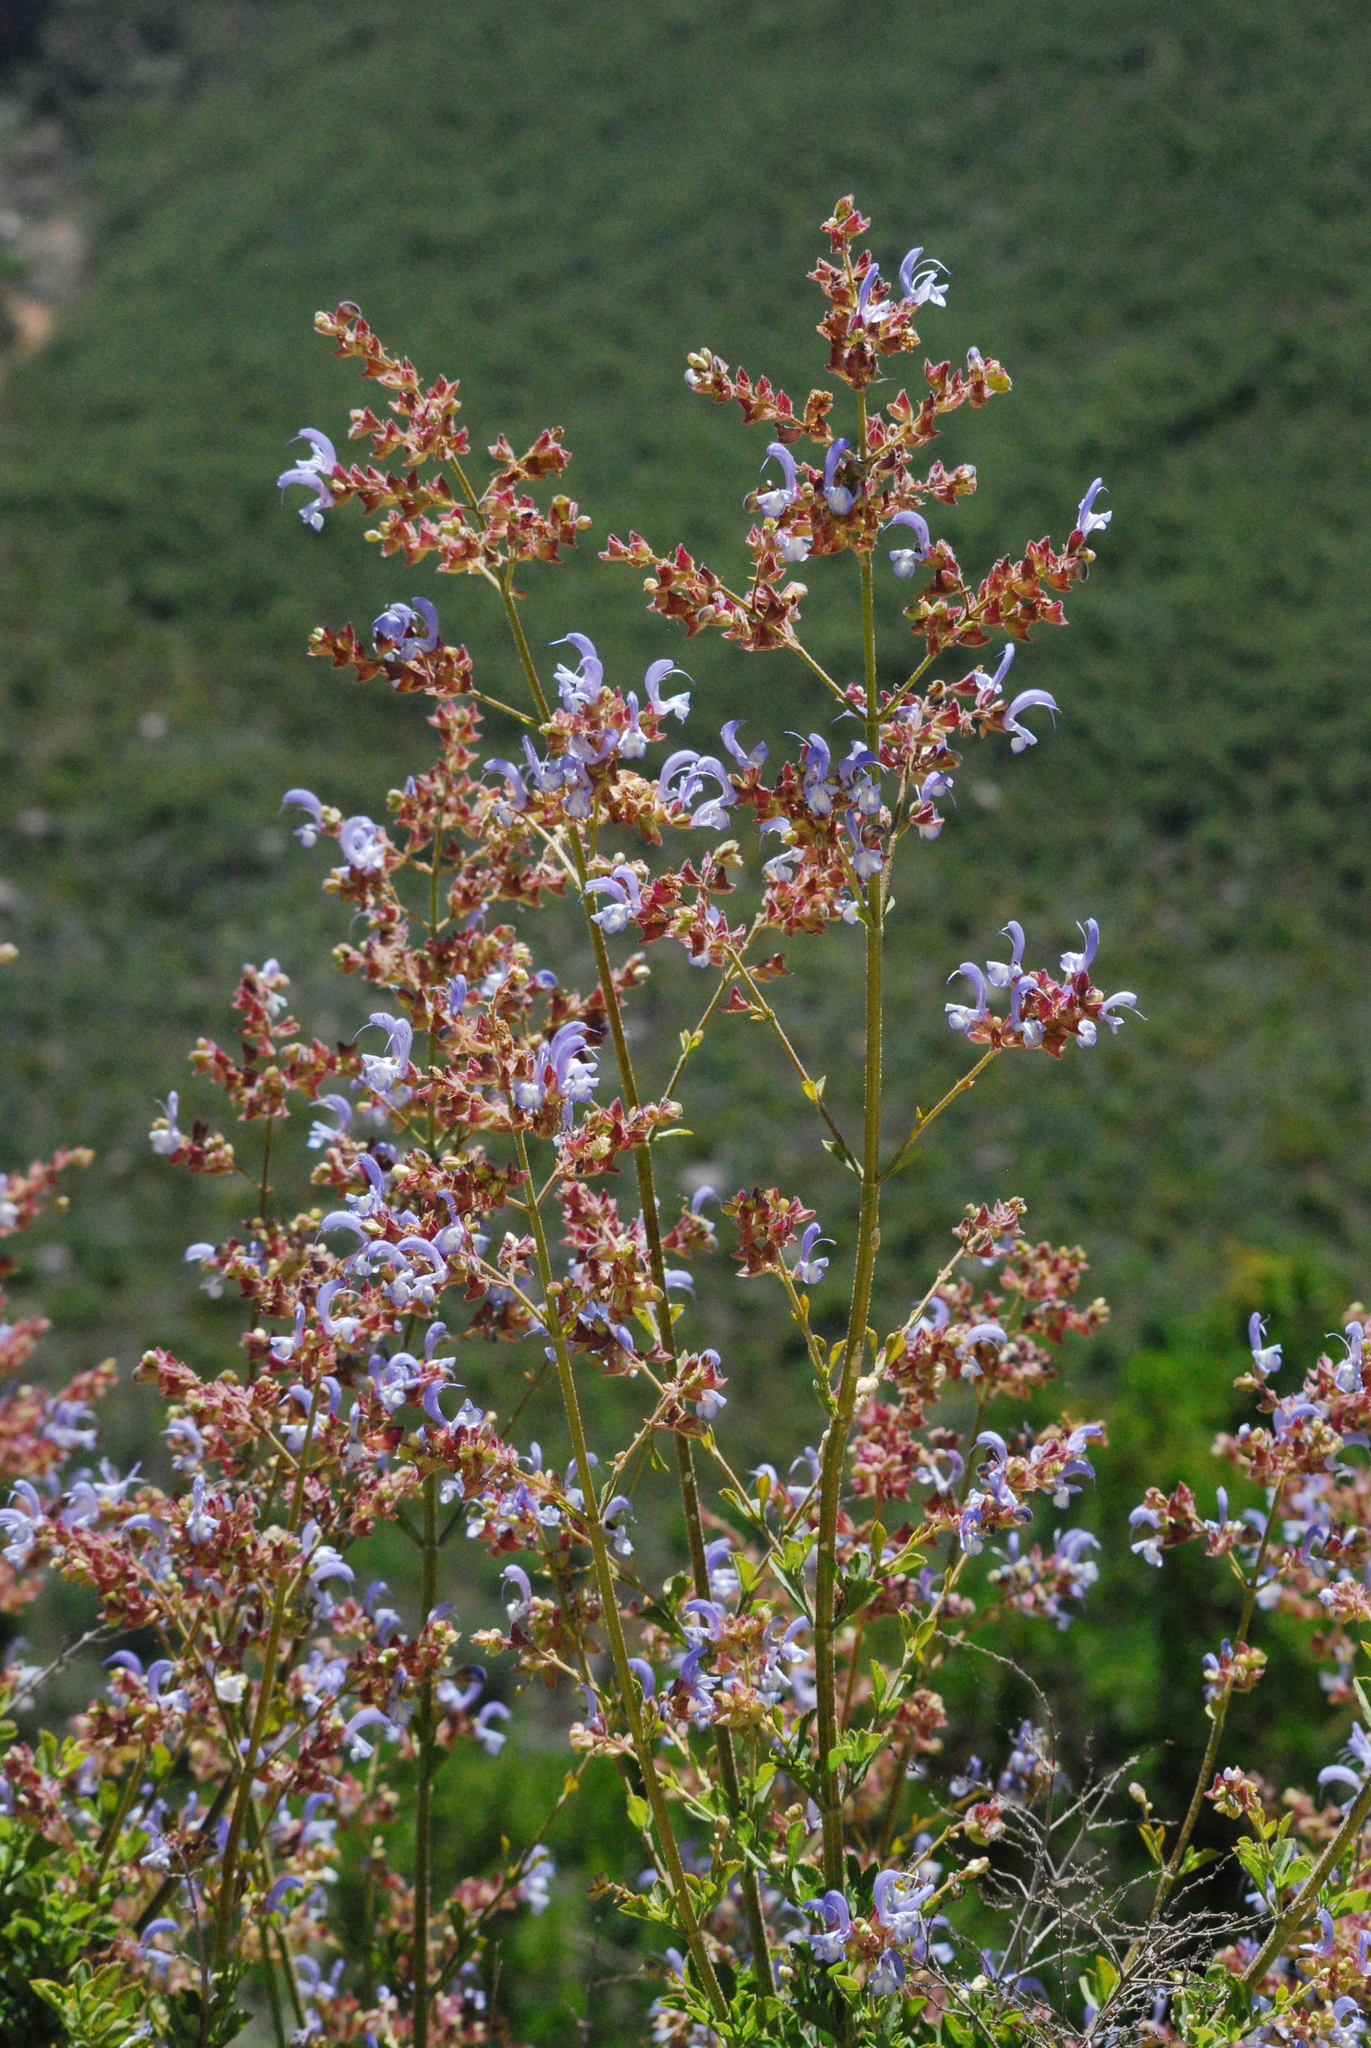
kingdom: Plantae
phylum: Tracheophyta
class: Magnoliopsida
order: Lamiales
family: Lamiaceae
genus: Salvia
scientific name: Salvia chamelaeagnea
